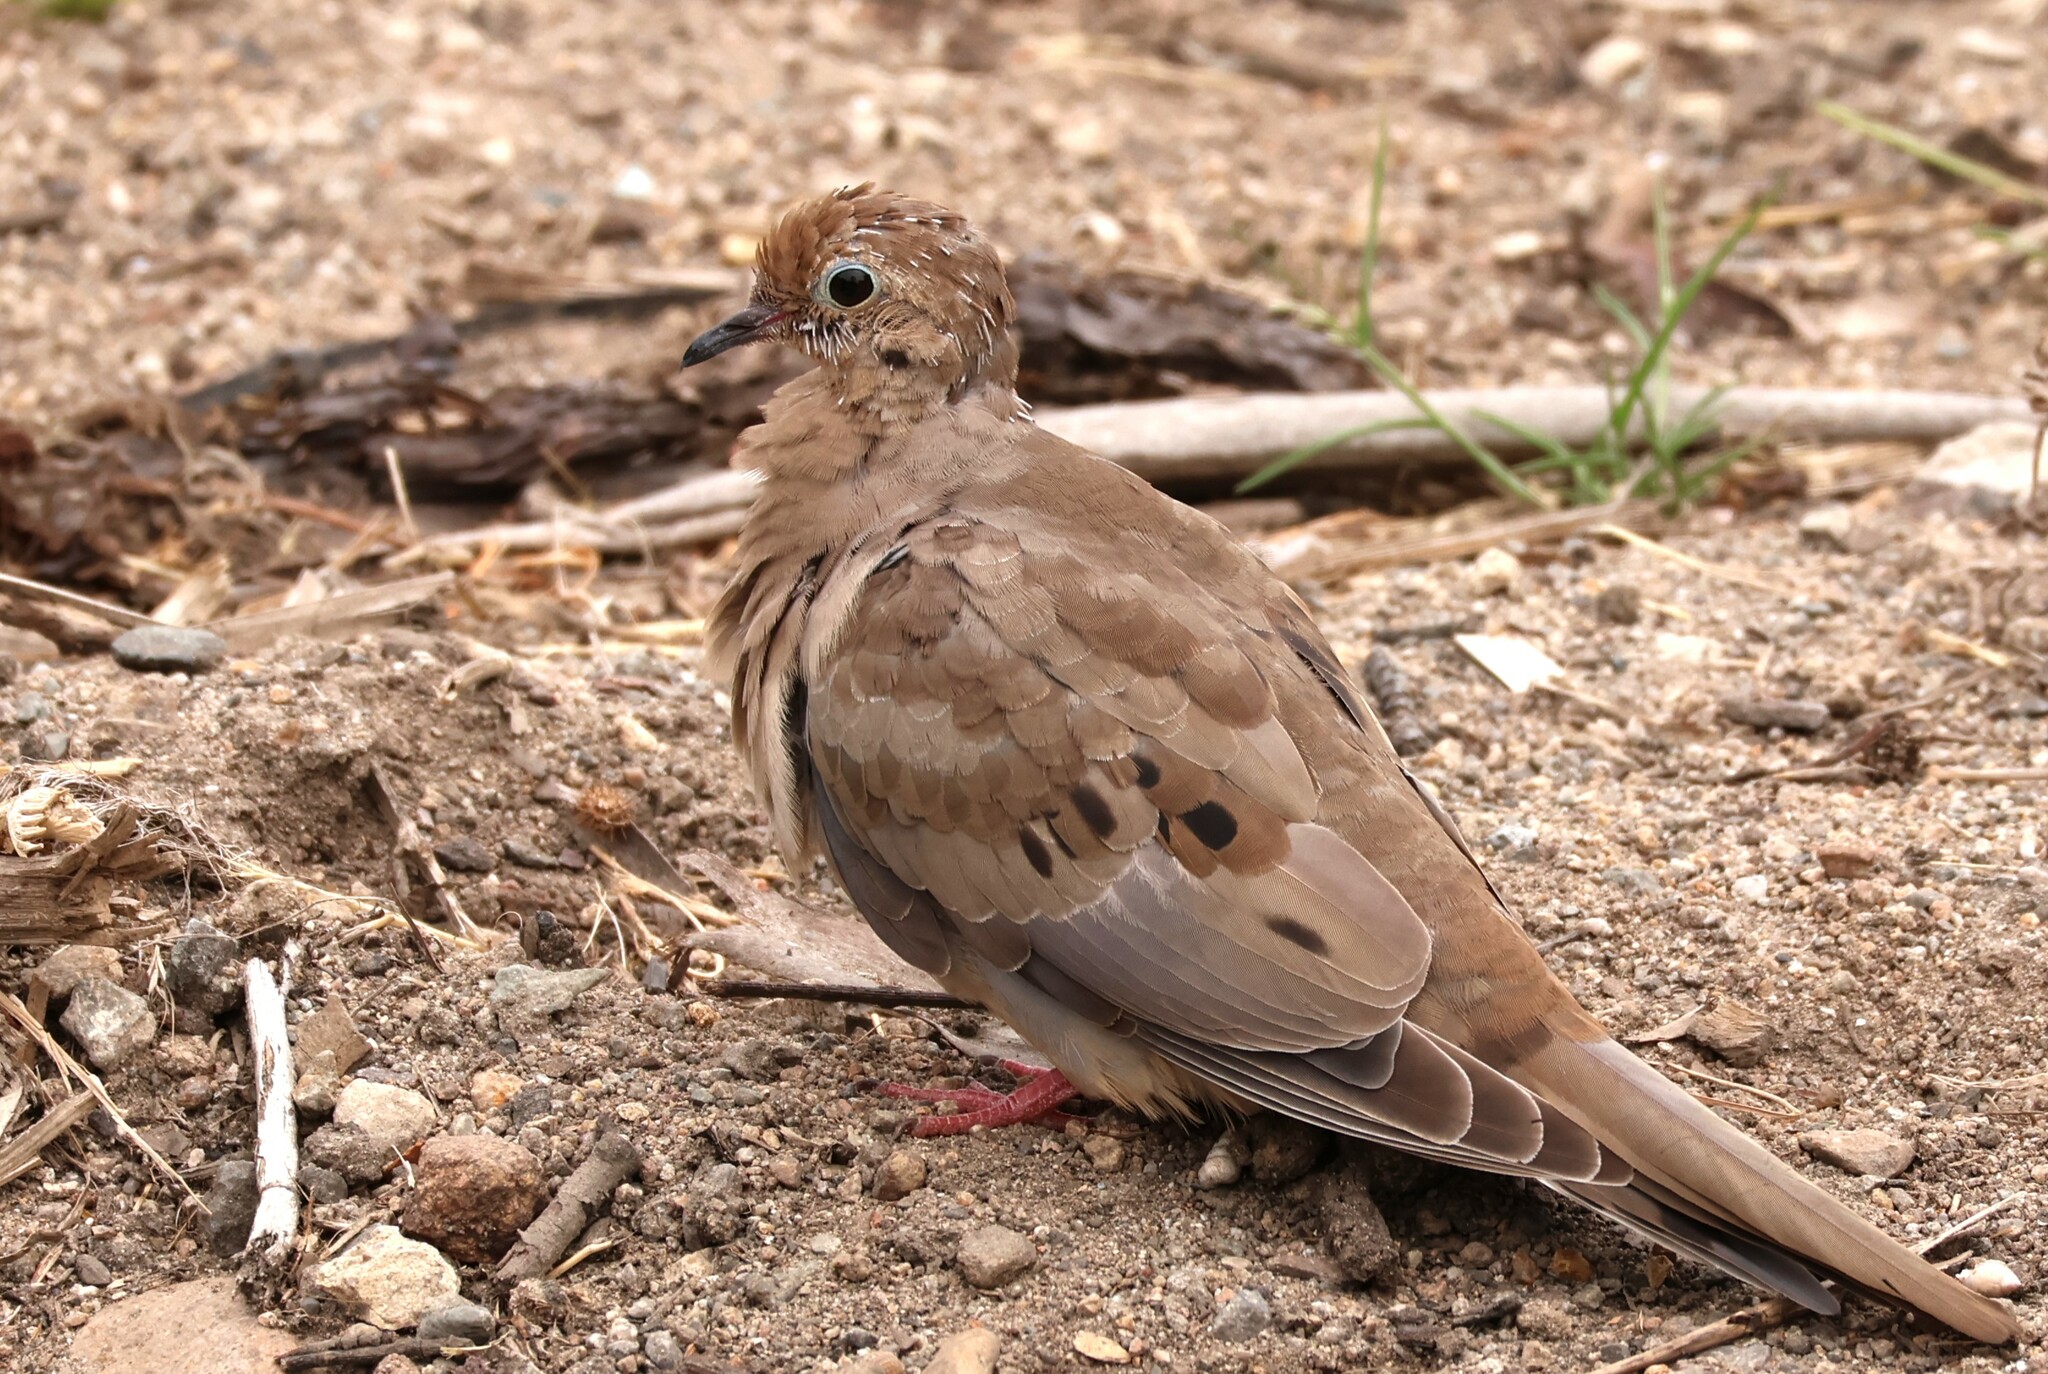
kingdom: Animalia
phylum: Chordata
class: Aves
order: Columbiformes
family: Columbidae
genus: Zenaida
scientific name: Zenaida macroura
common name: Mourning dove
